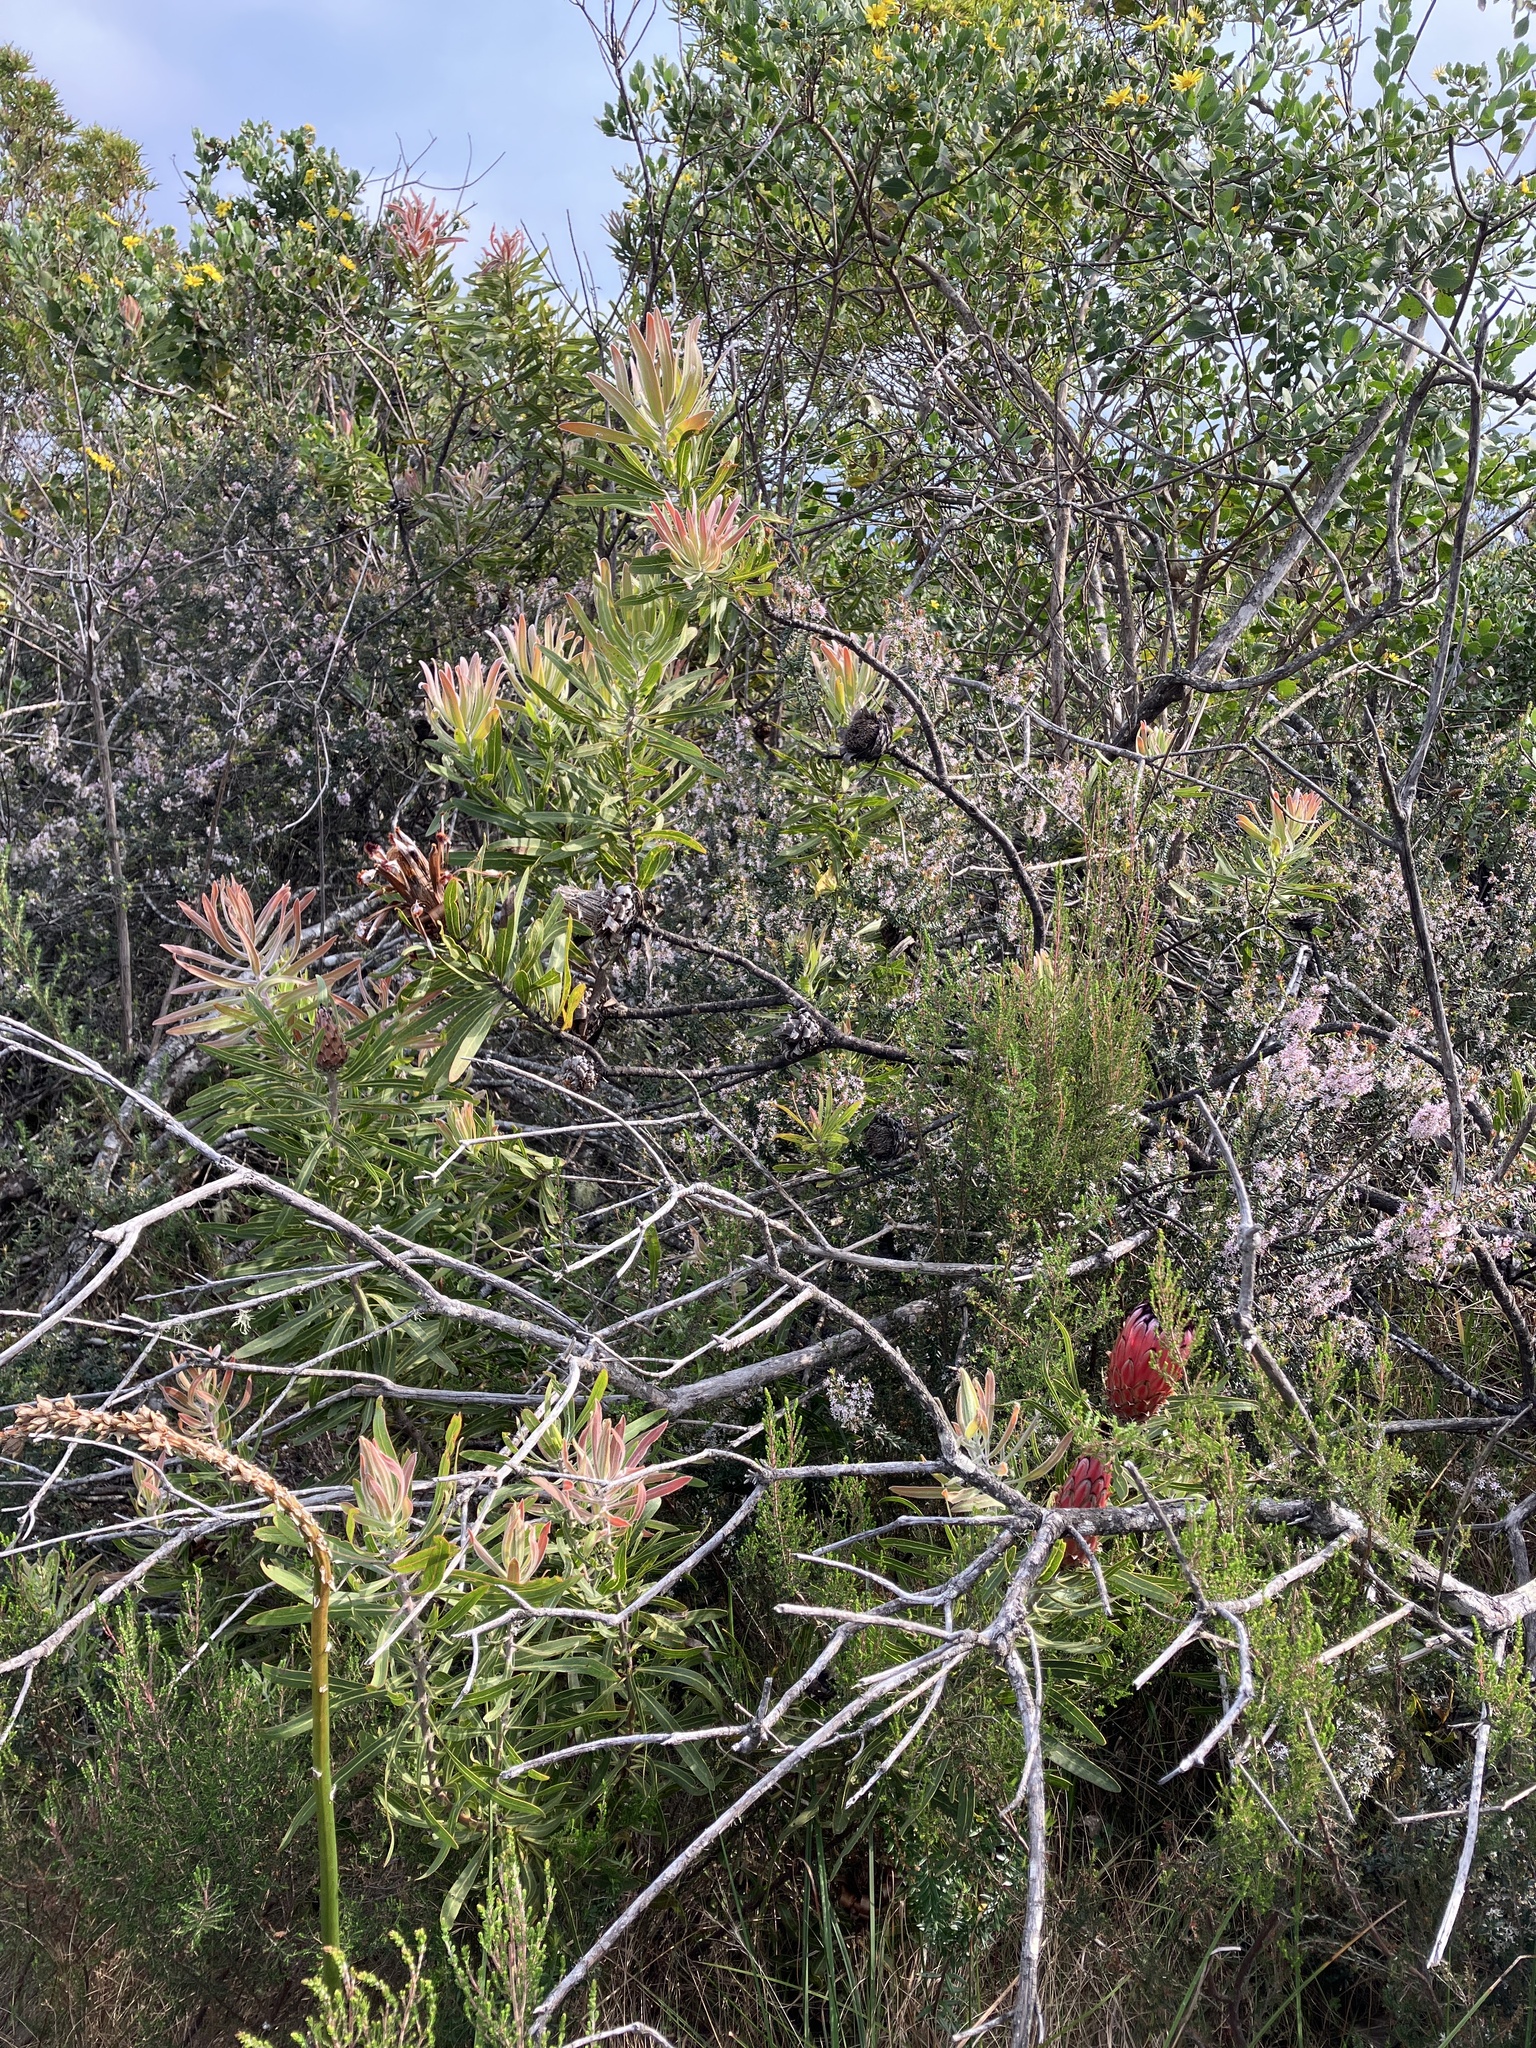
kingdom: Plantae
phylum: Tracheophyta
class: Magnoliopsida
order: Proteales
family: Proteaceae
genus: Protea
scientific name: Protea neriifolia
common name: Blue sugarbush
